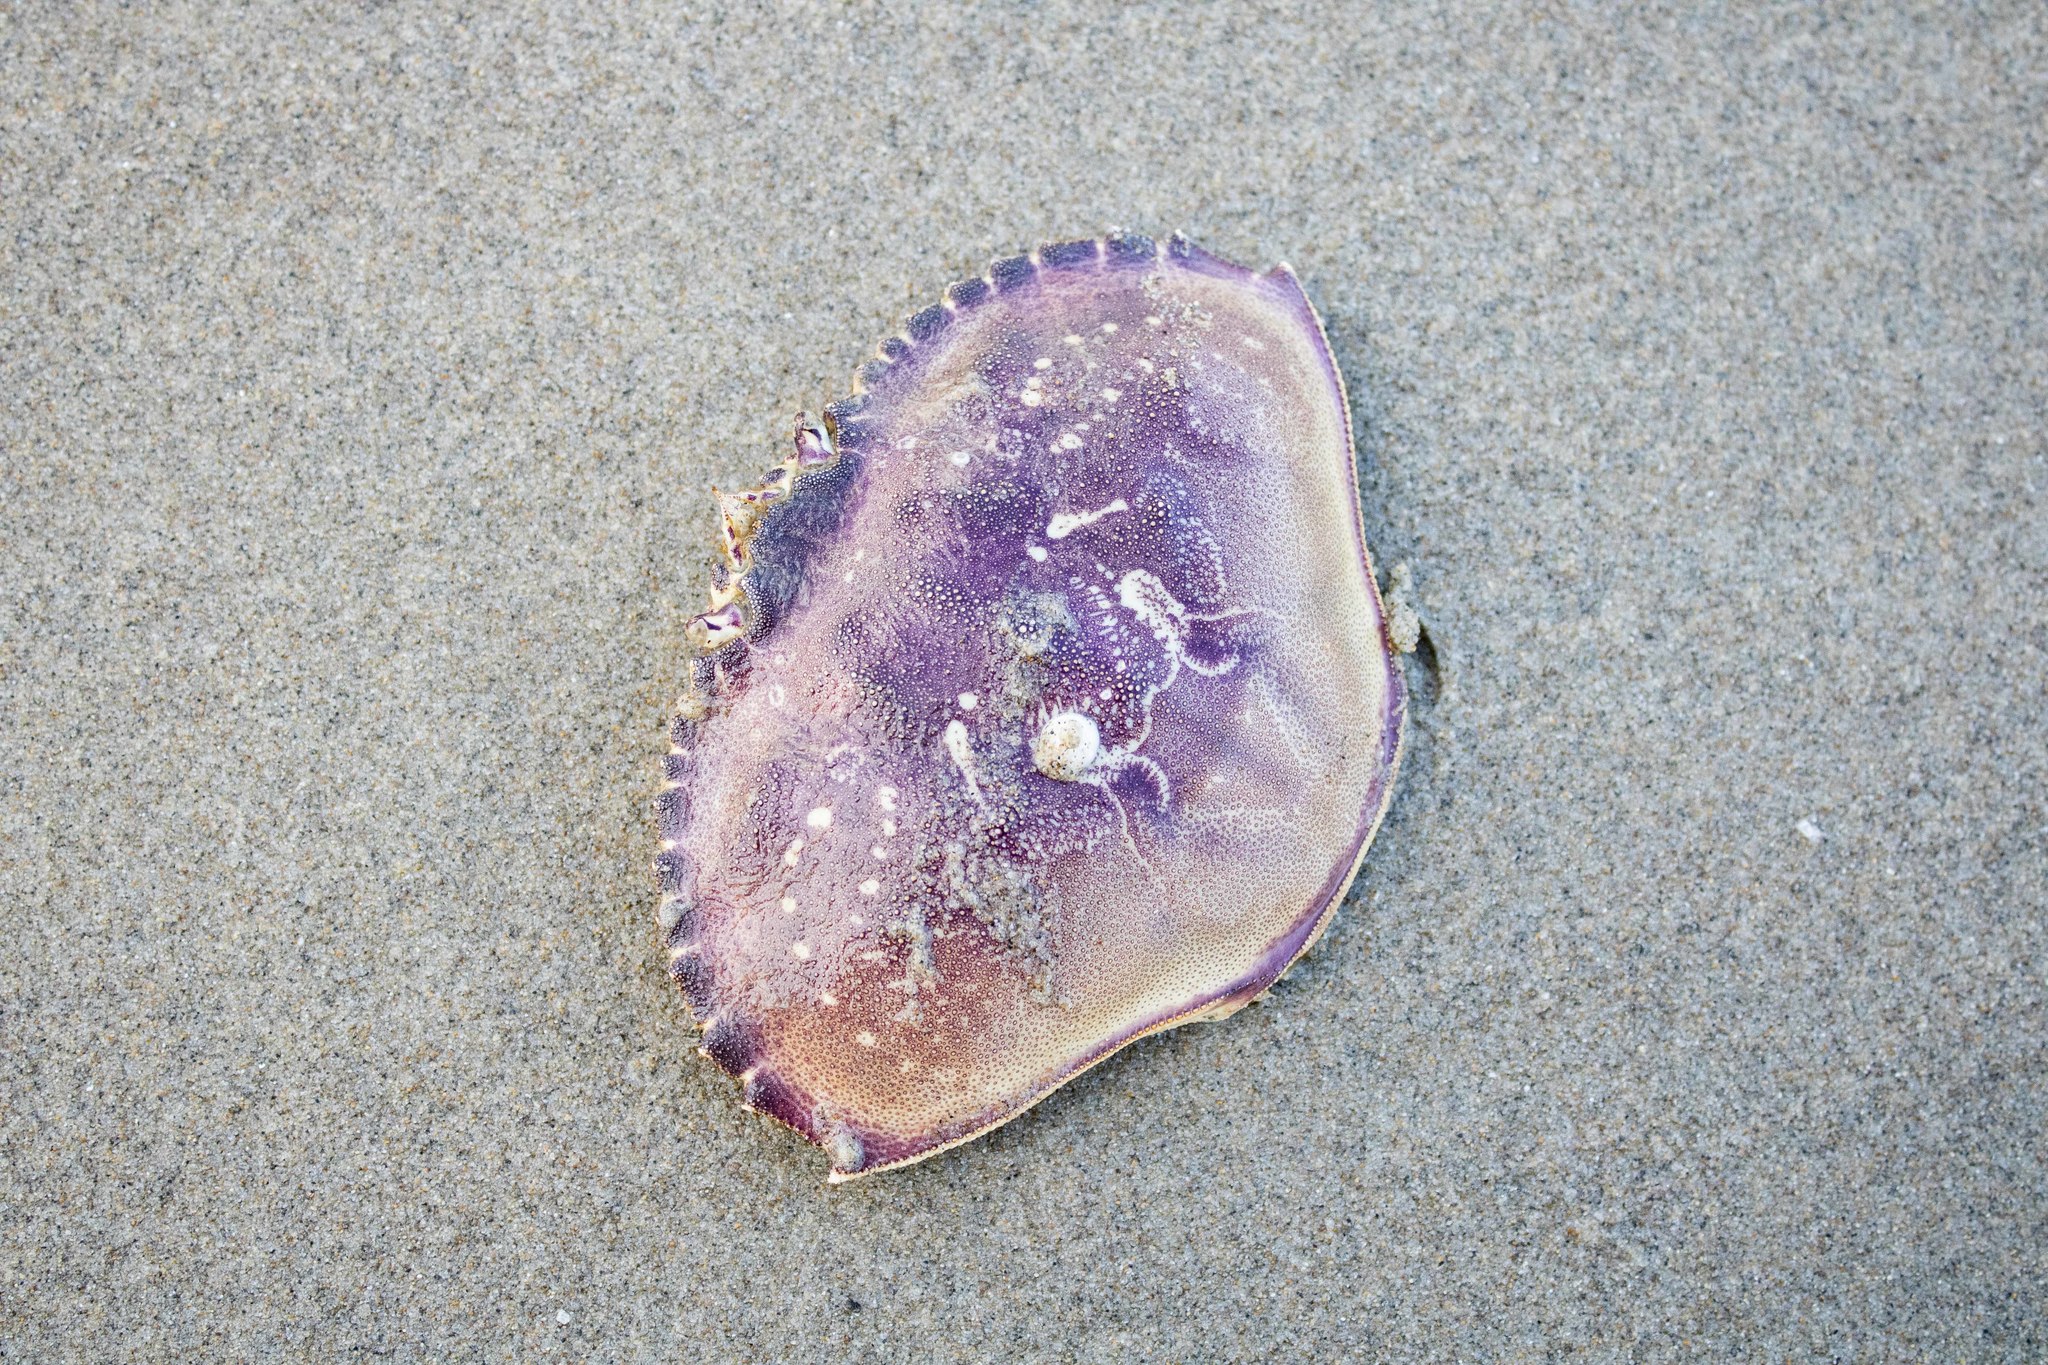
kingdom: Animalia
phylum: Arthropoda
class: Malacostraca
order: Decapoda
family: Cancridae
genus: Metacarcinus
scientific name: Metacarcinus magister
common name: Californian crab
